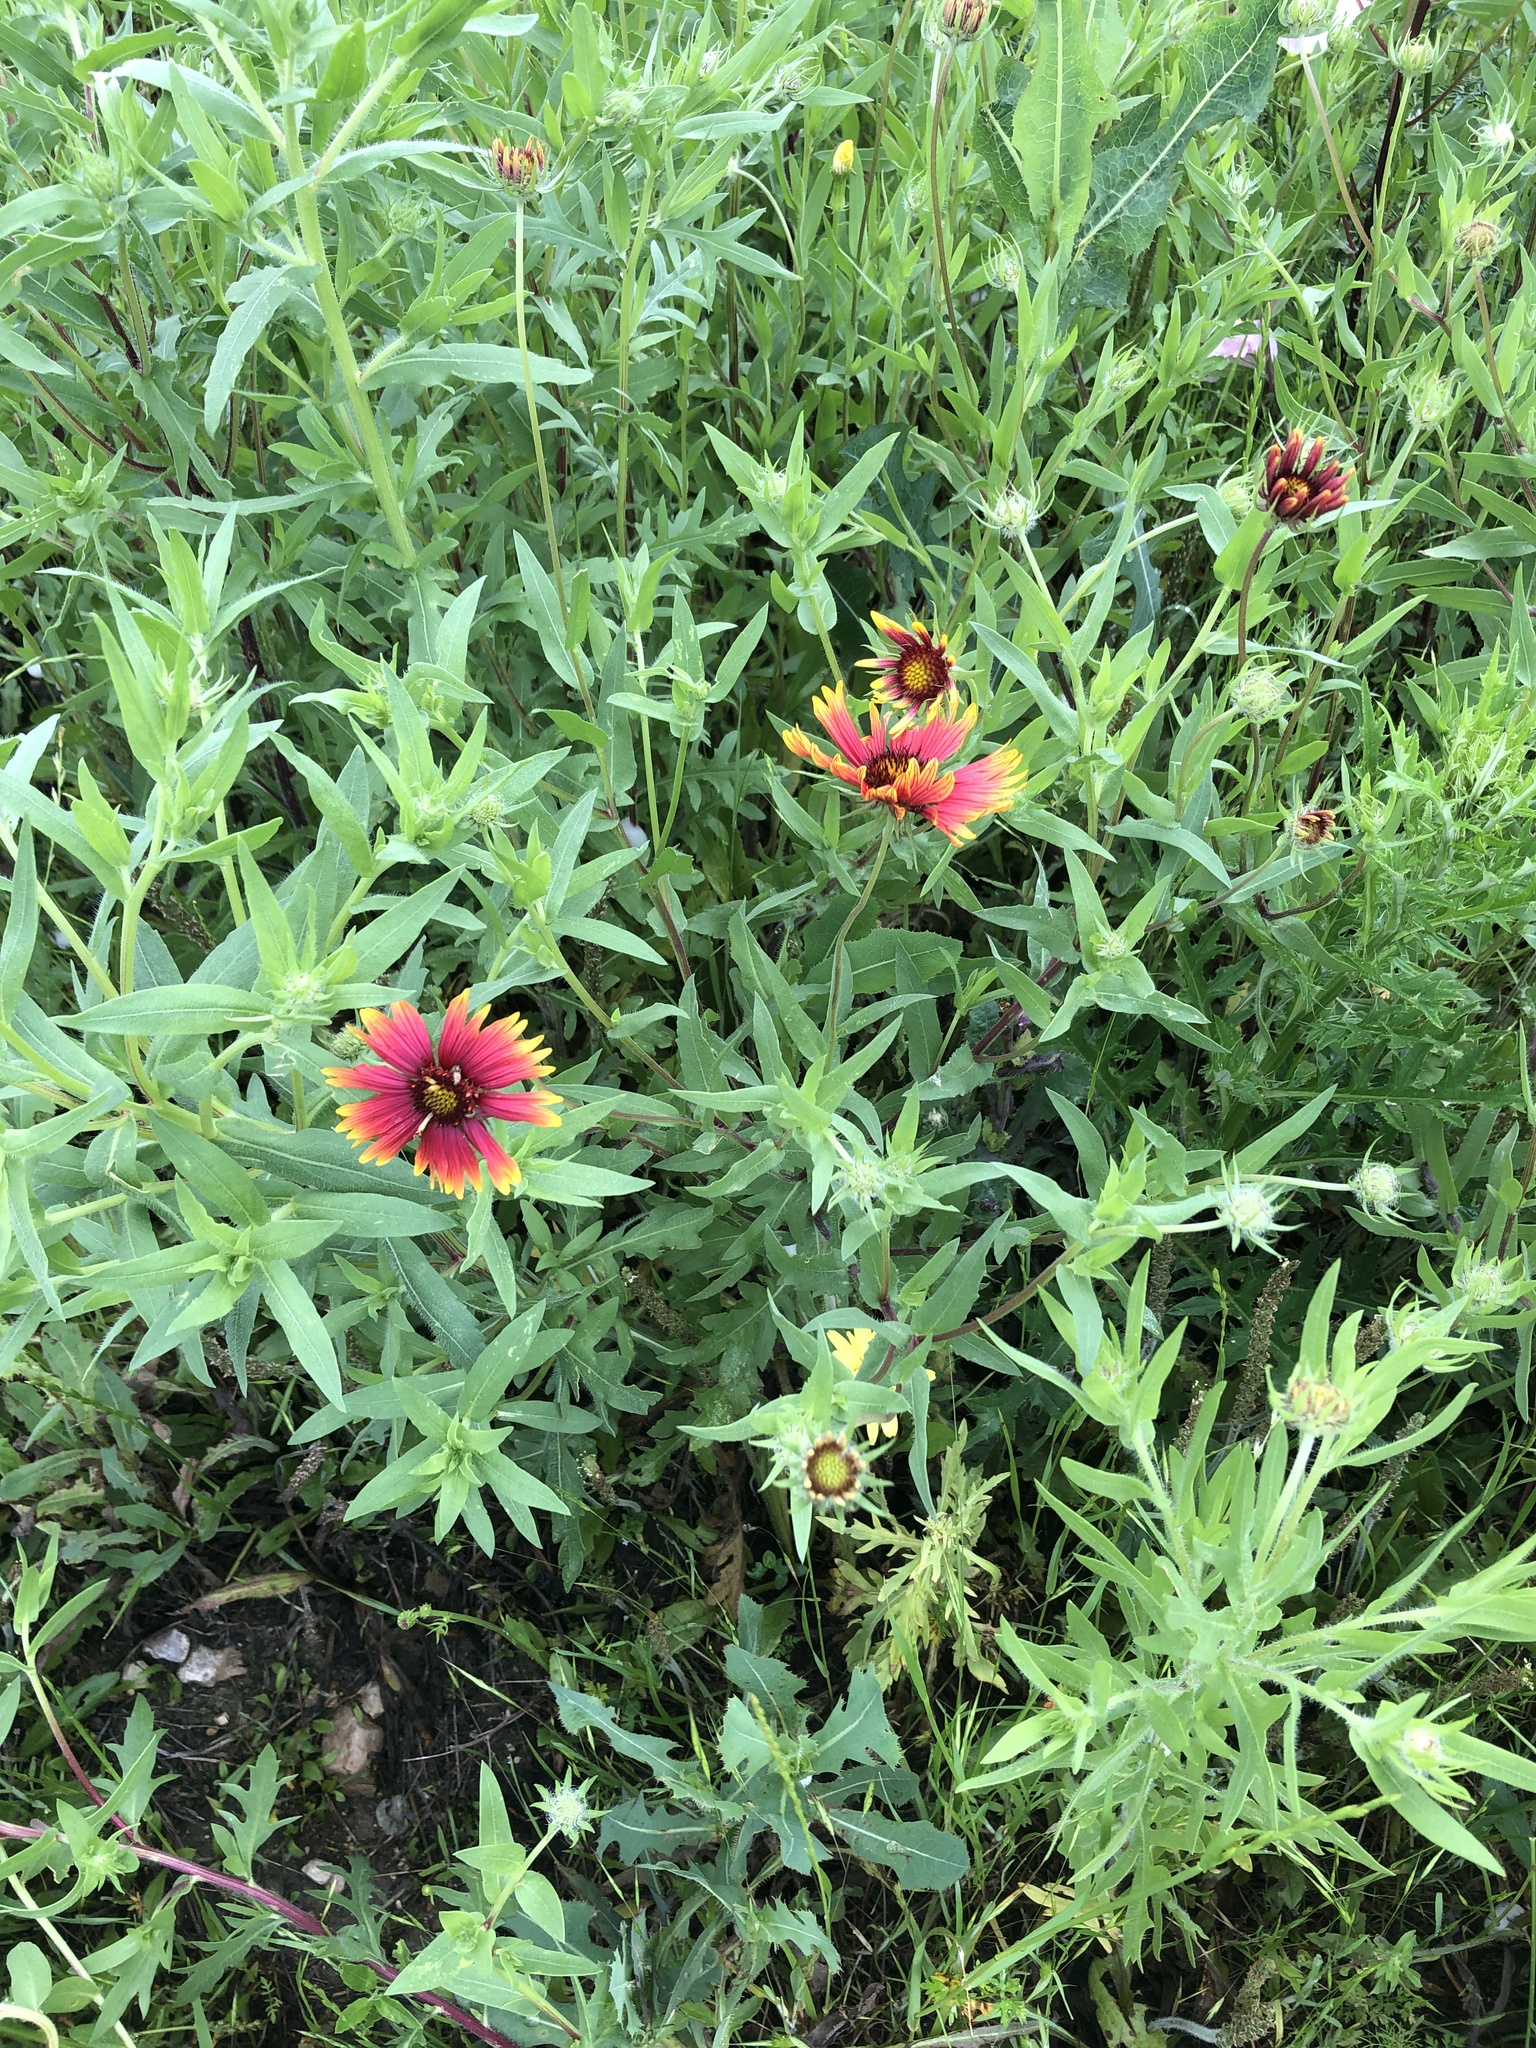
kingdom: Plantae
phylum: Tracheophyta
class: Magnoliopsida
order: Asterales
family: Asteraceae
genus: Gaillardia
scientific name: Gaillardia pulchella
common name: Firewheel
